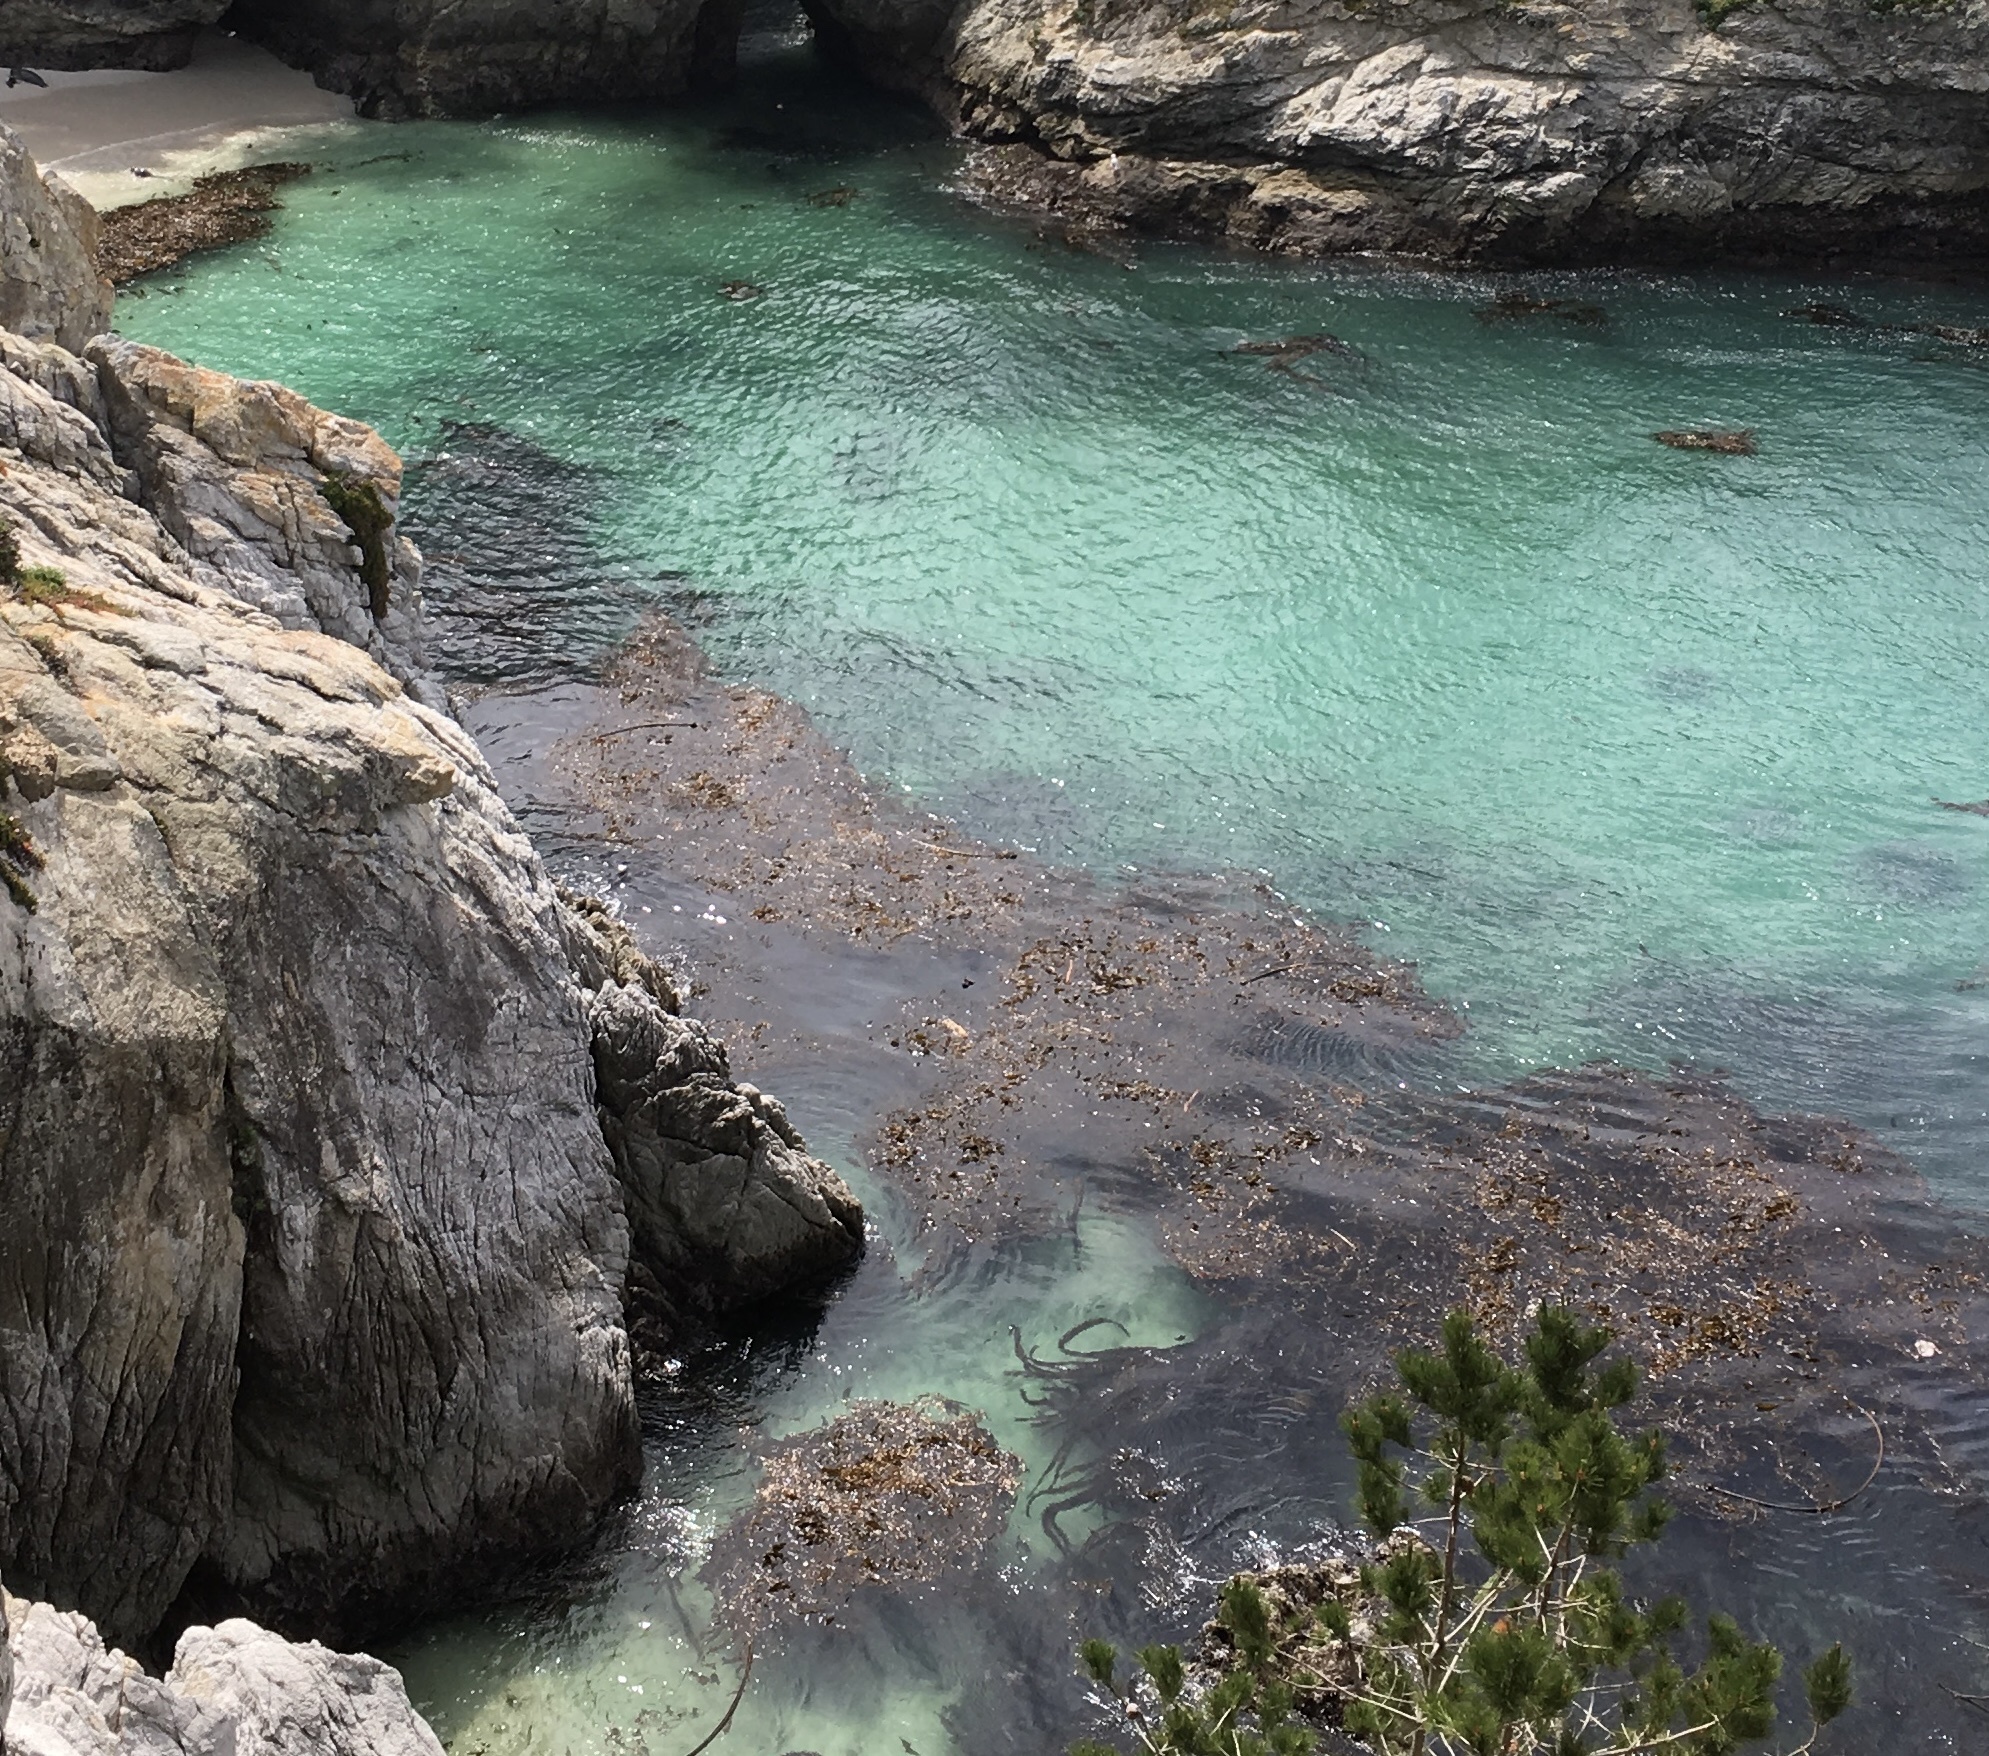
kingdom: Chromista
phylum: Ochrophyta
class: Phaeophyceae
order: Laminariales
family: Laminariaceae
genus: Macrocystis
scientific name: Macrocystis pyrifera
